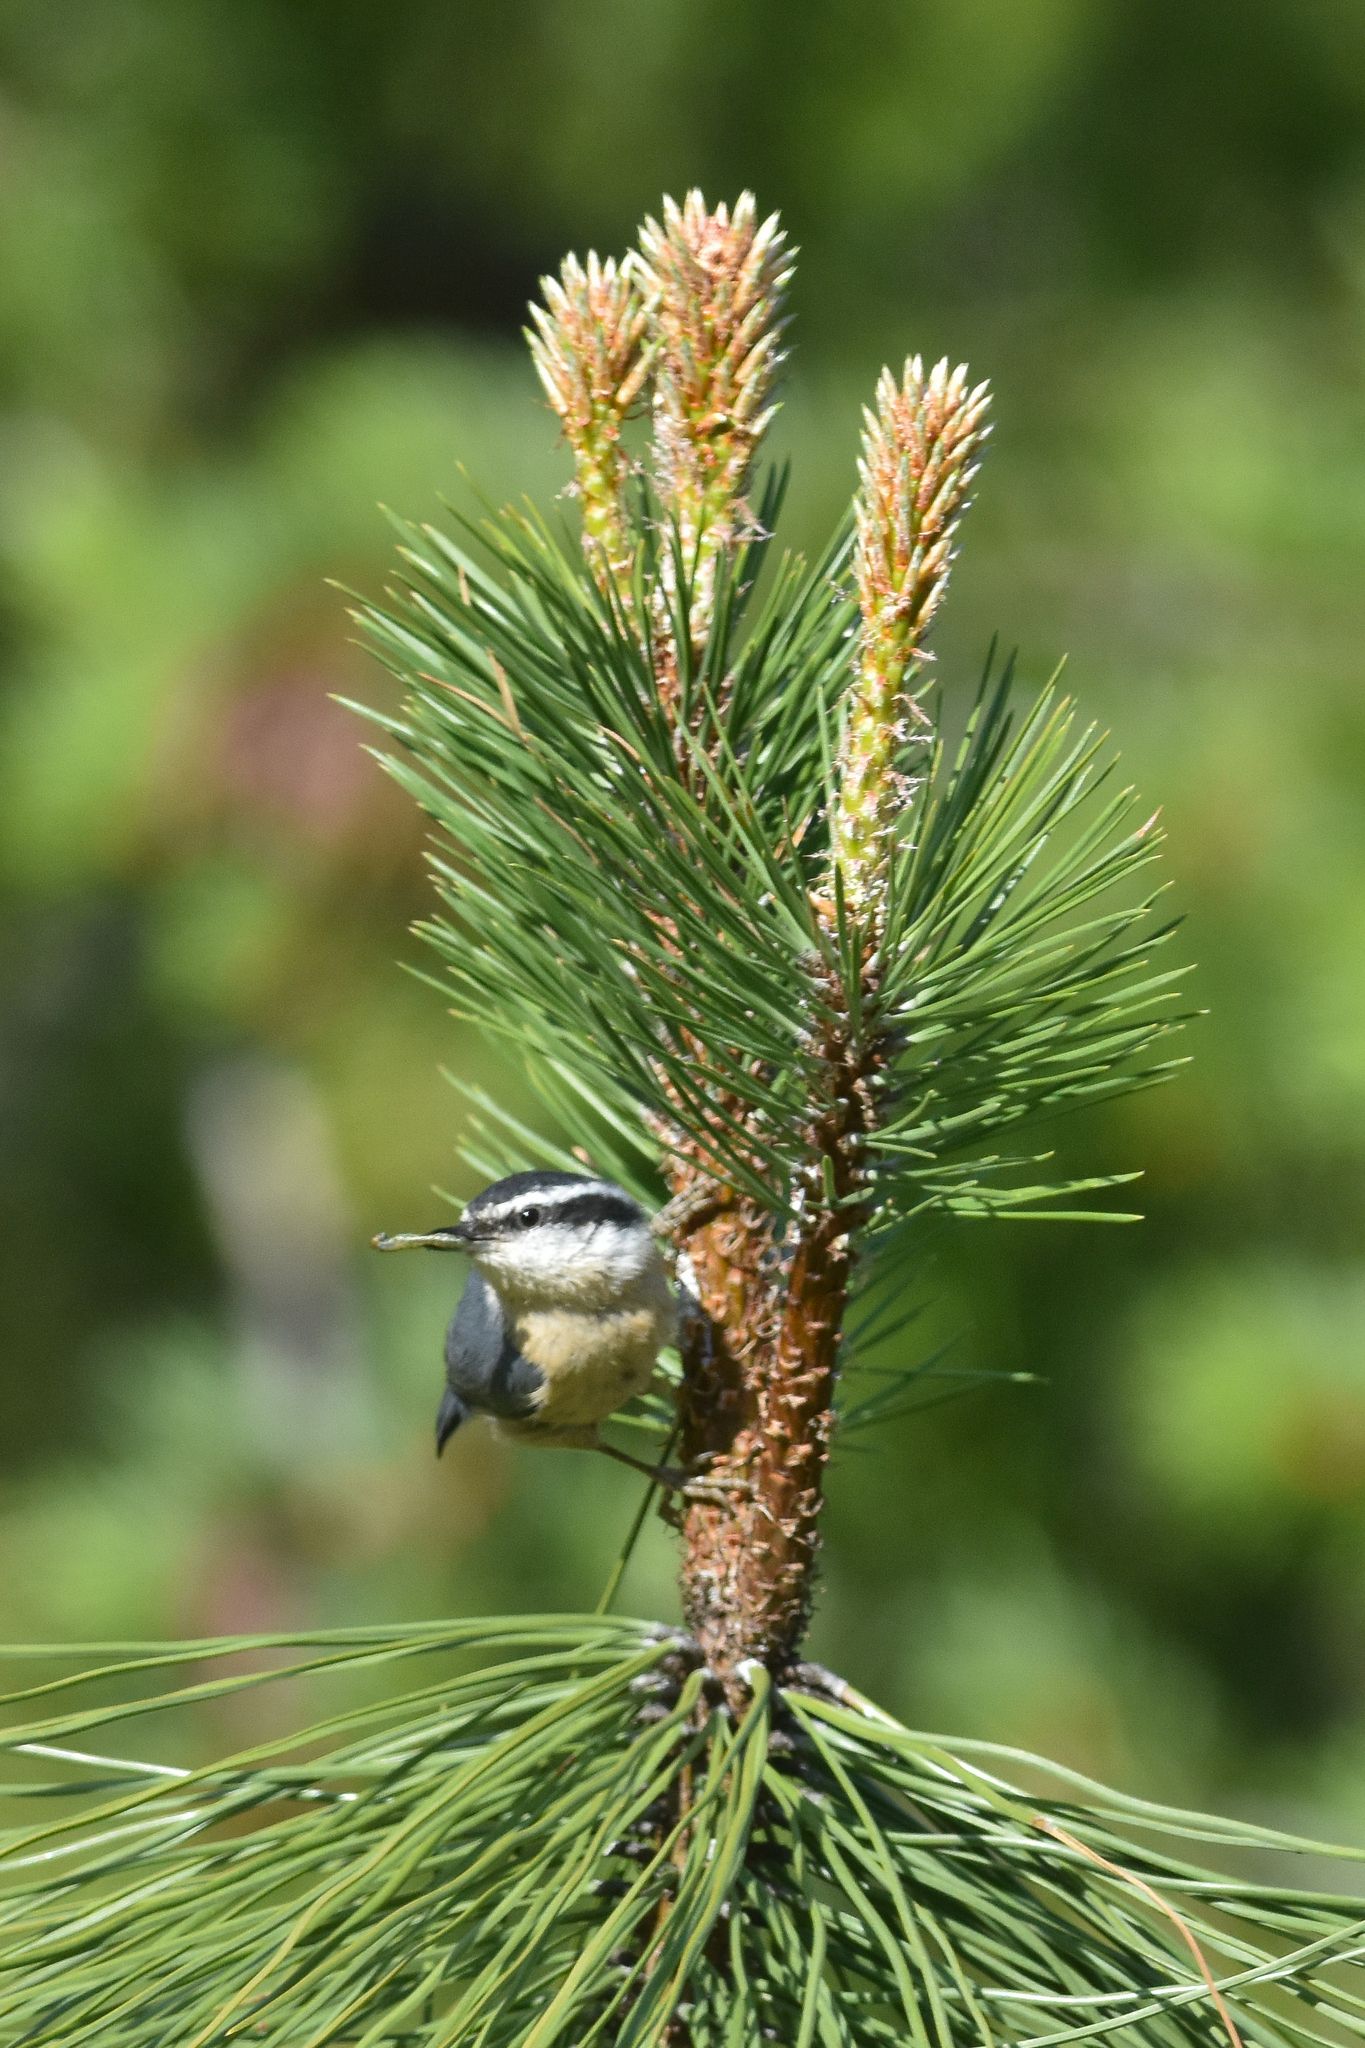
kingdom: Animalia
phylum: Chordata
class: Aves
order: Passeriformes
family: Sittidae
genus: Sitta
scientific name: Sitta canadensis
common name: Red-breasted nuthatch
